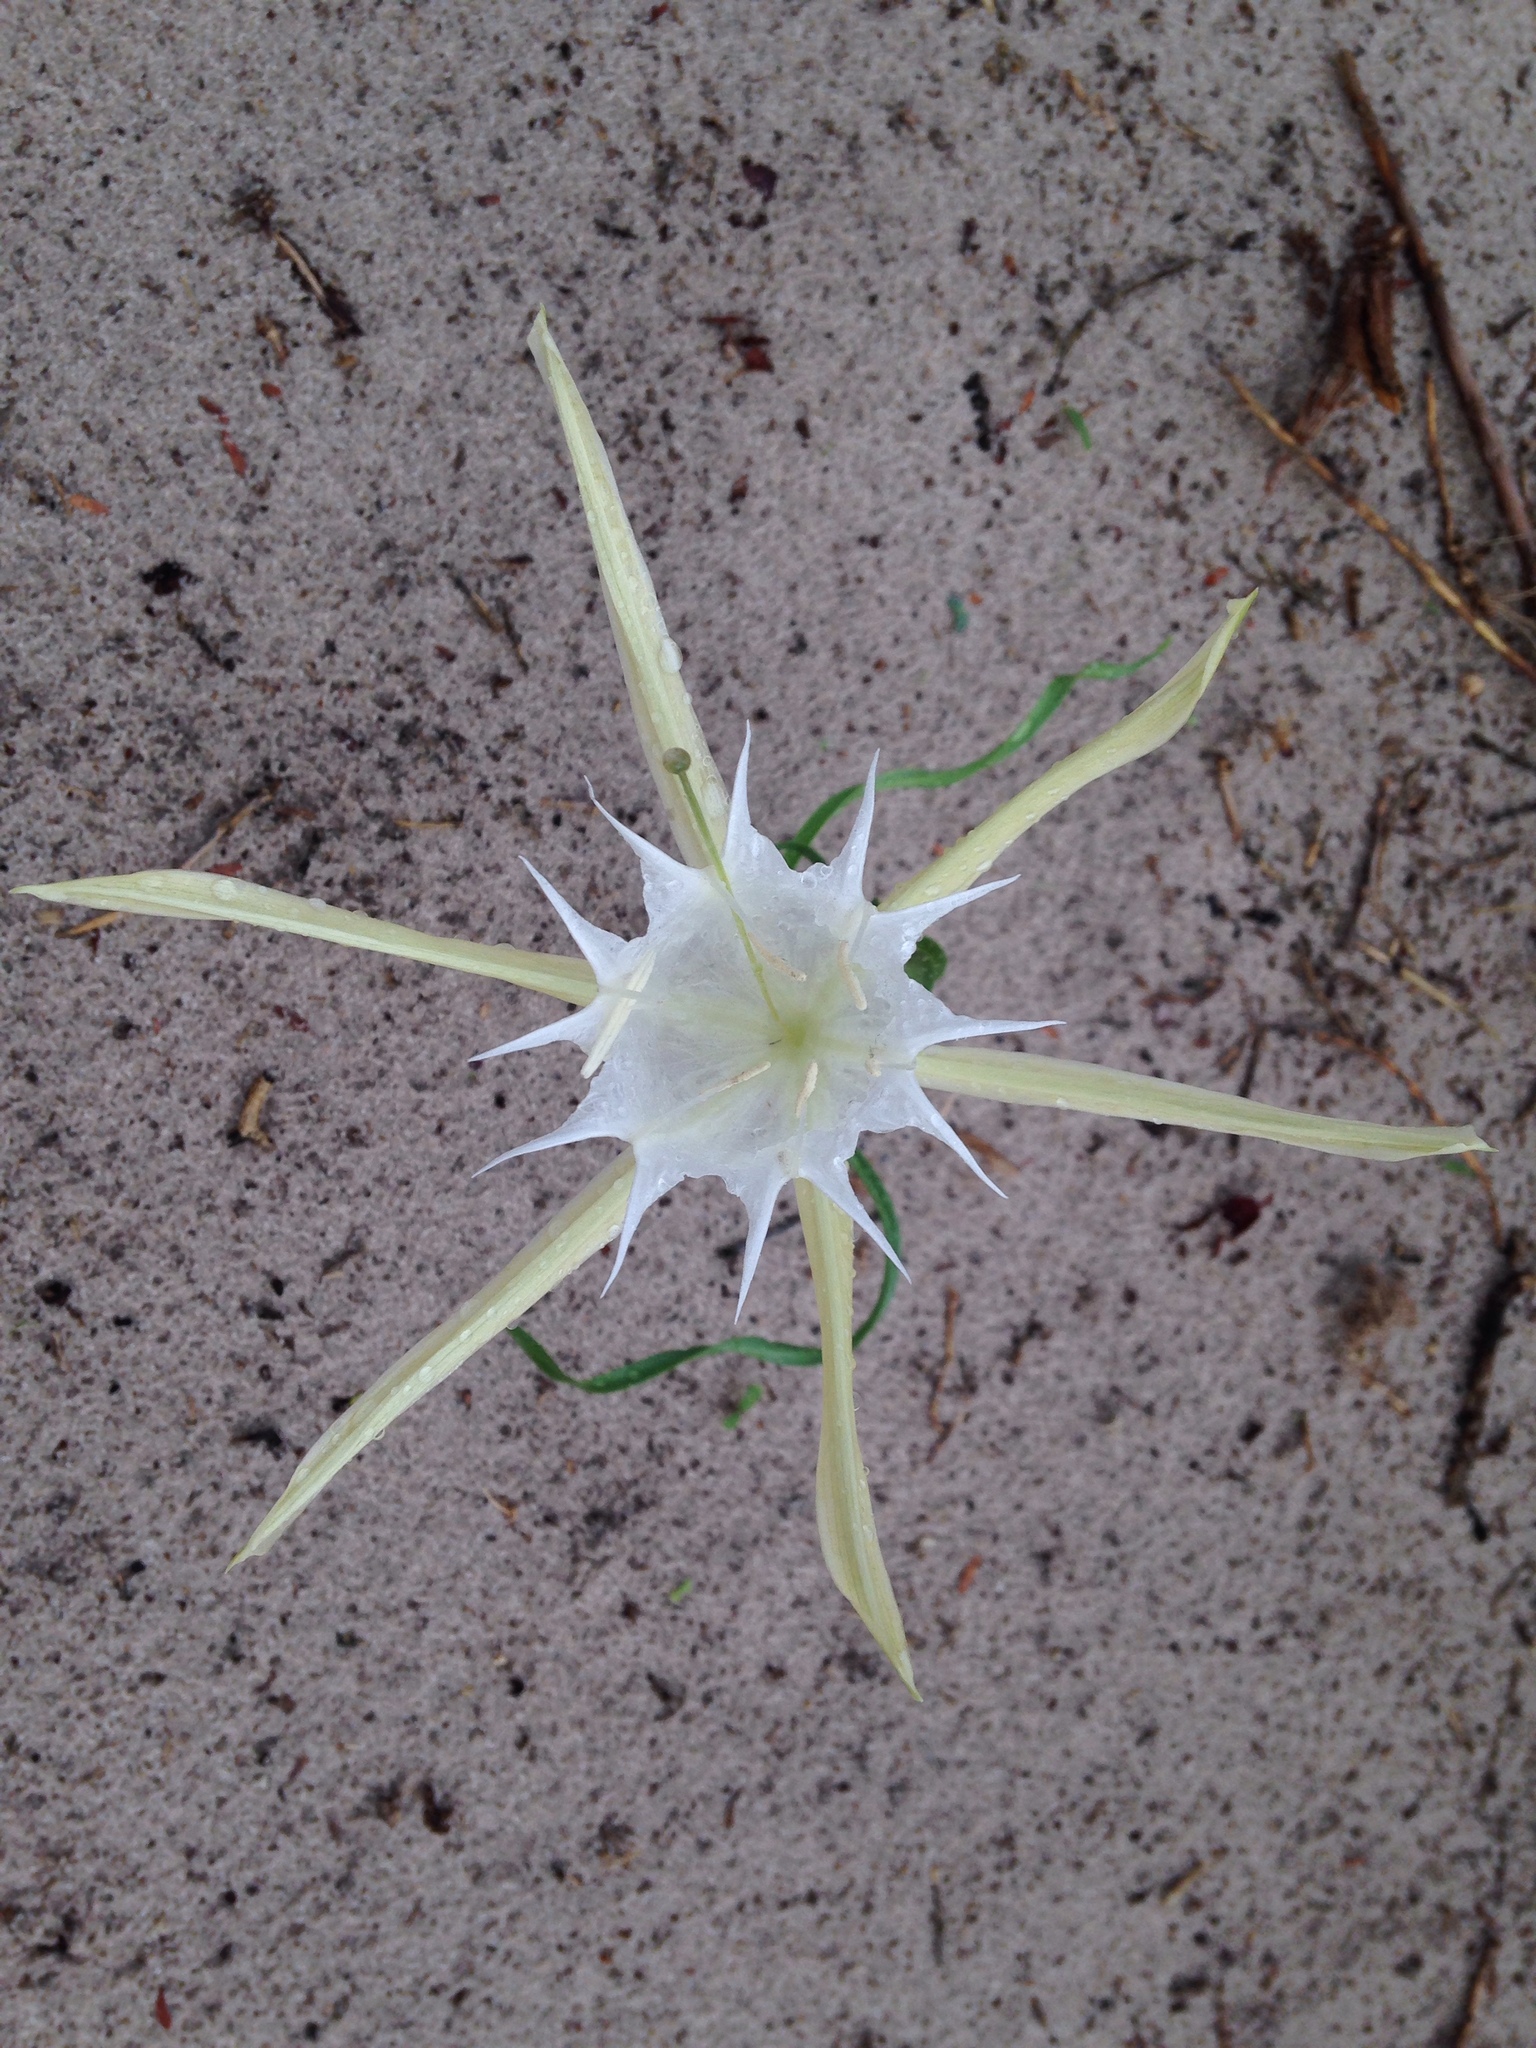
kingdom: Plantae
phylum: Tracheophyta
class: Liliopsida
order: Asparagales
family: Amaryllidaceae
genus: Pancratium
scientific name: Pancratium tenuifolium
